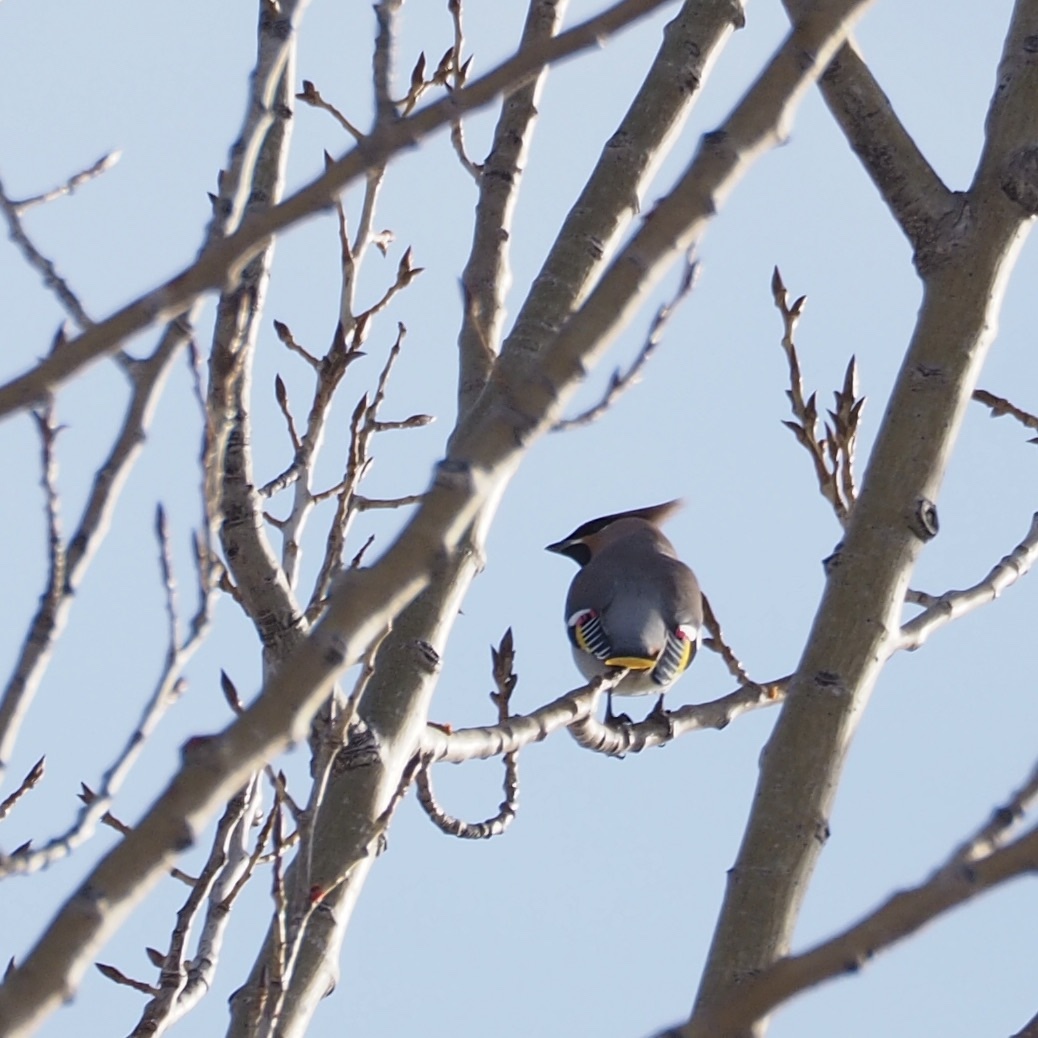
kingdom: Animalia
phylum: Chordata
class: Aves
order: Passeriformes
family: Bombycillidae
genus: Bombycilla
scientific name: Bombycilla garrulus
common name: Bohemian waxwing
